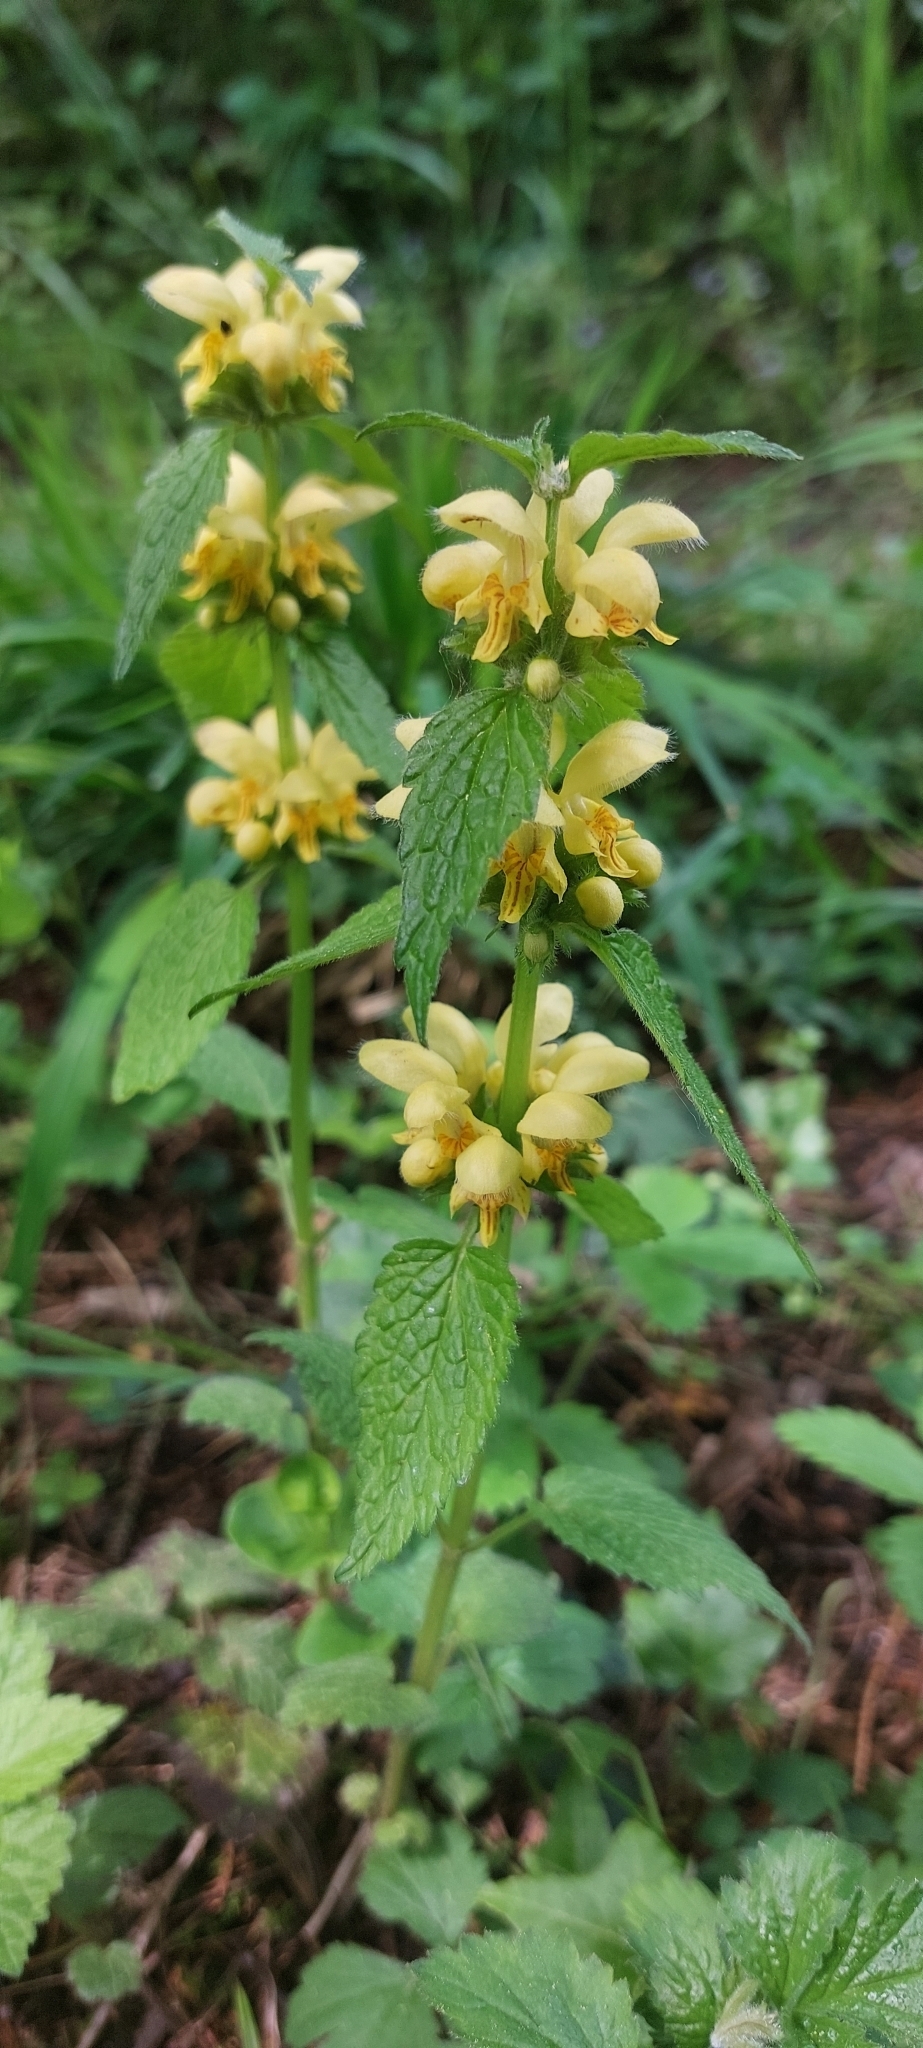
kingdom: Plantae
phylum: Tracheophyta
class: Magnoliopsida
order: Lamiales
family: Lamiaceae
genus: Lamium
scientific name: Lamium galeobdolon
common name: Yellow archangel
